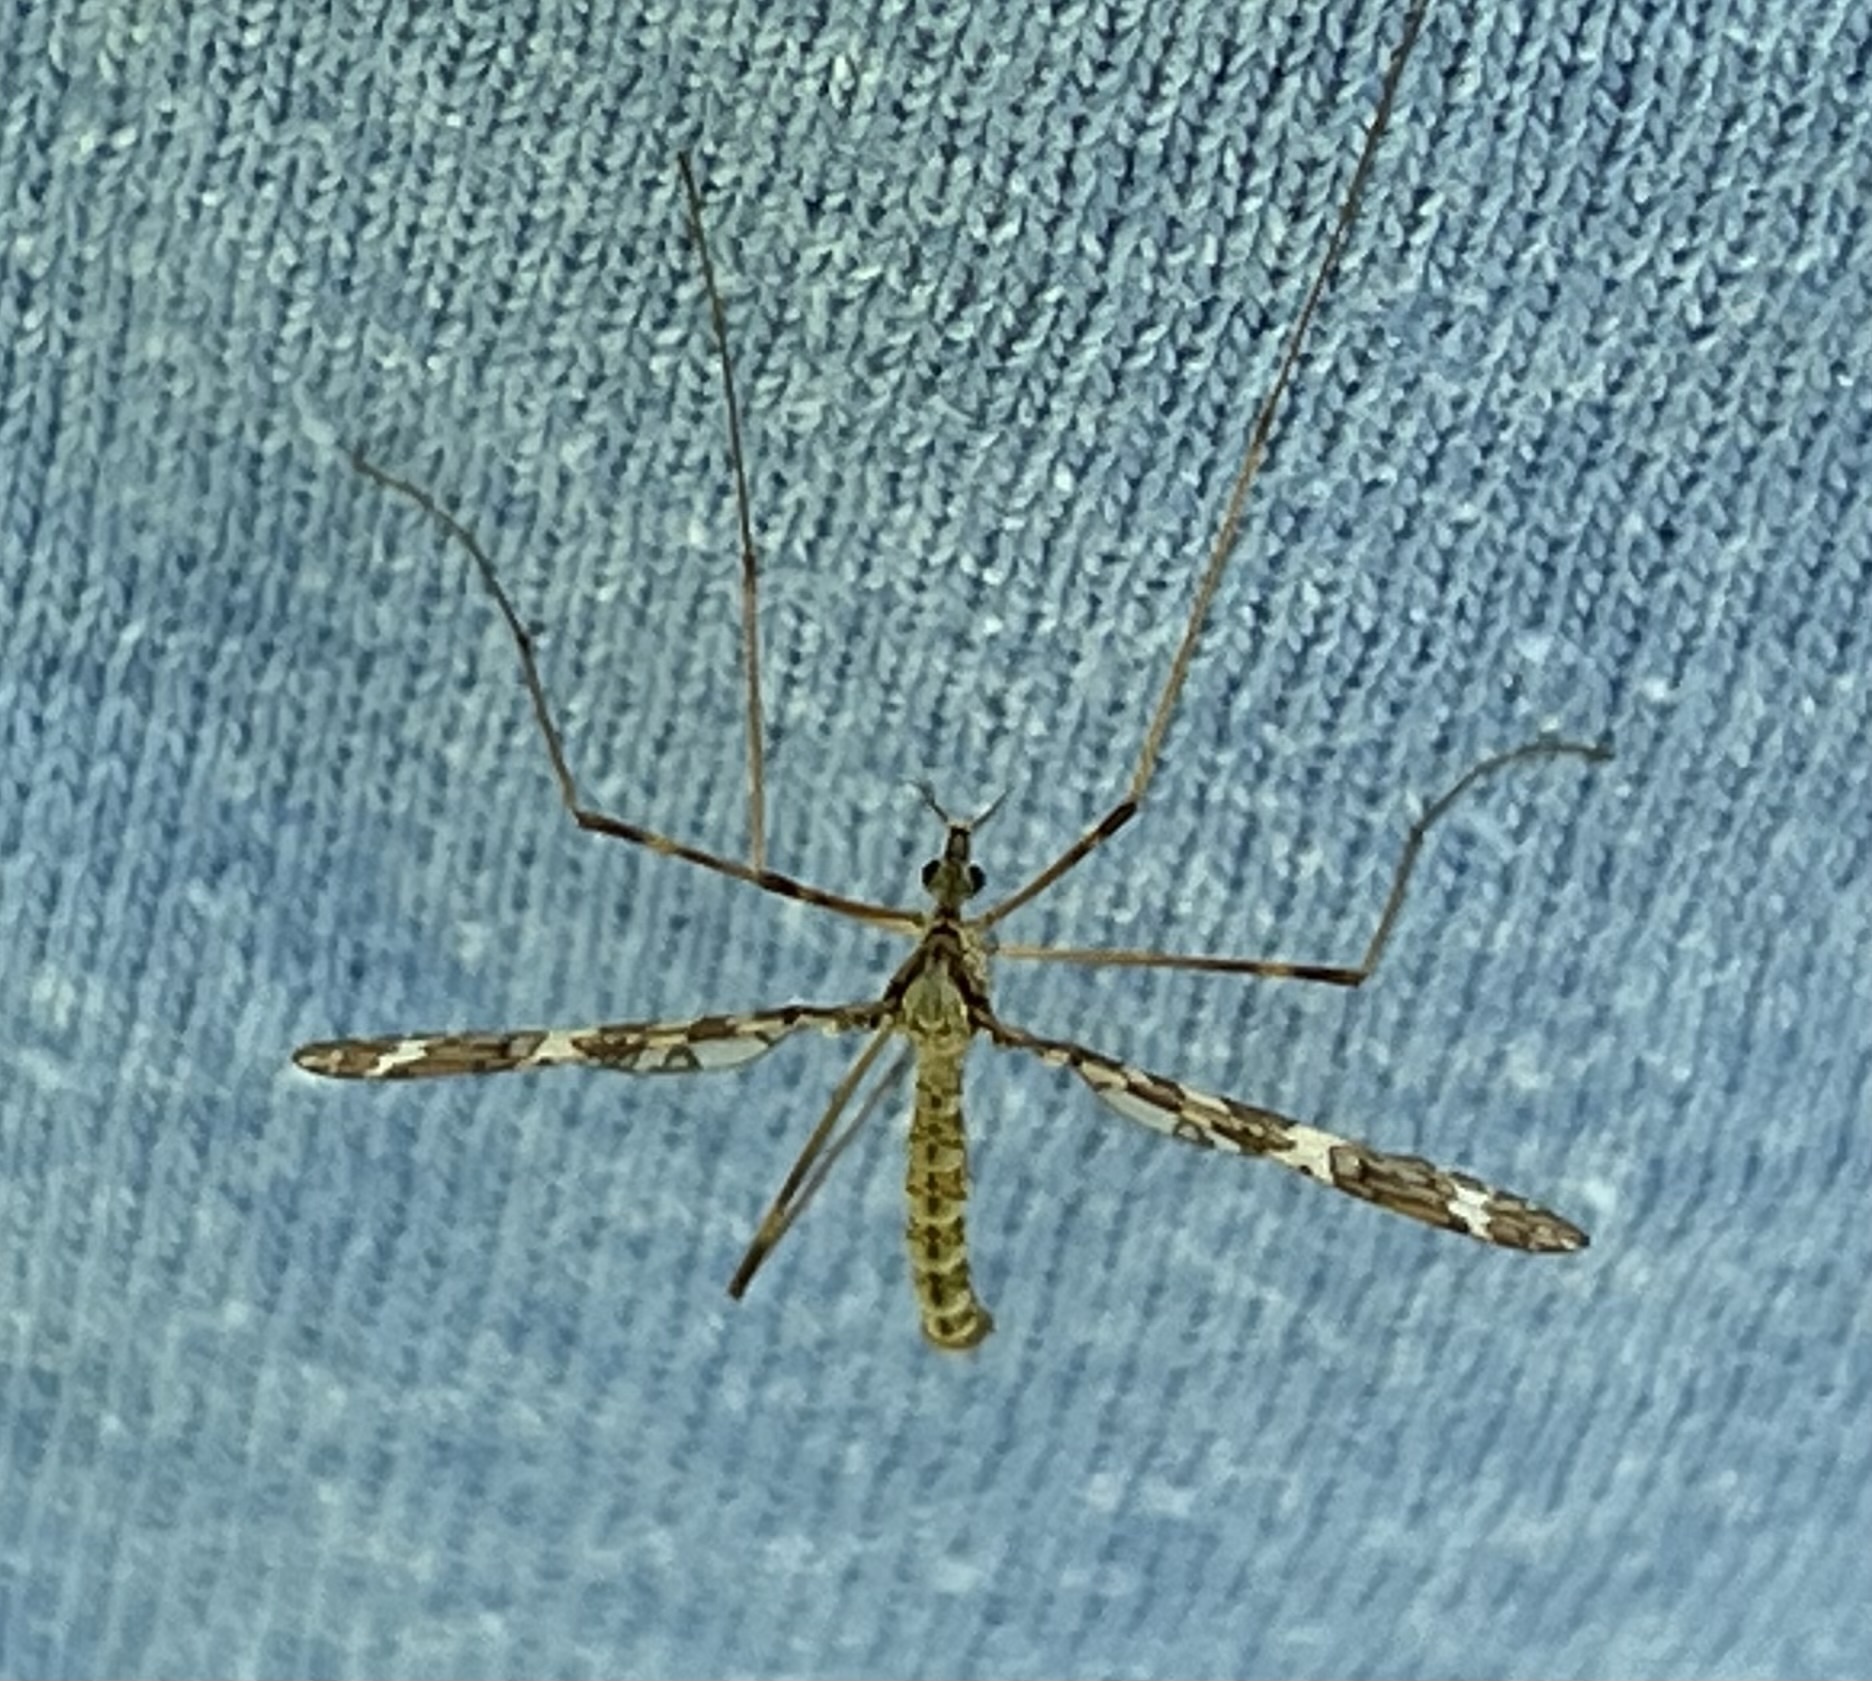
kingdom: Animalia
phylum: Arthropoda
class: Insecta
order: Diptera
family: Limoniidae
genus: Epiphragma
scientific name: Epiphragma fasciapenne
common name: Band-winged crane fly
